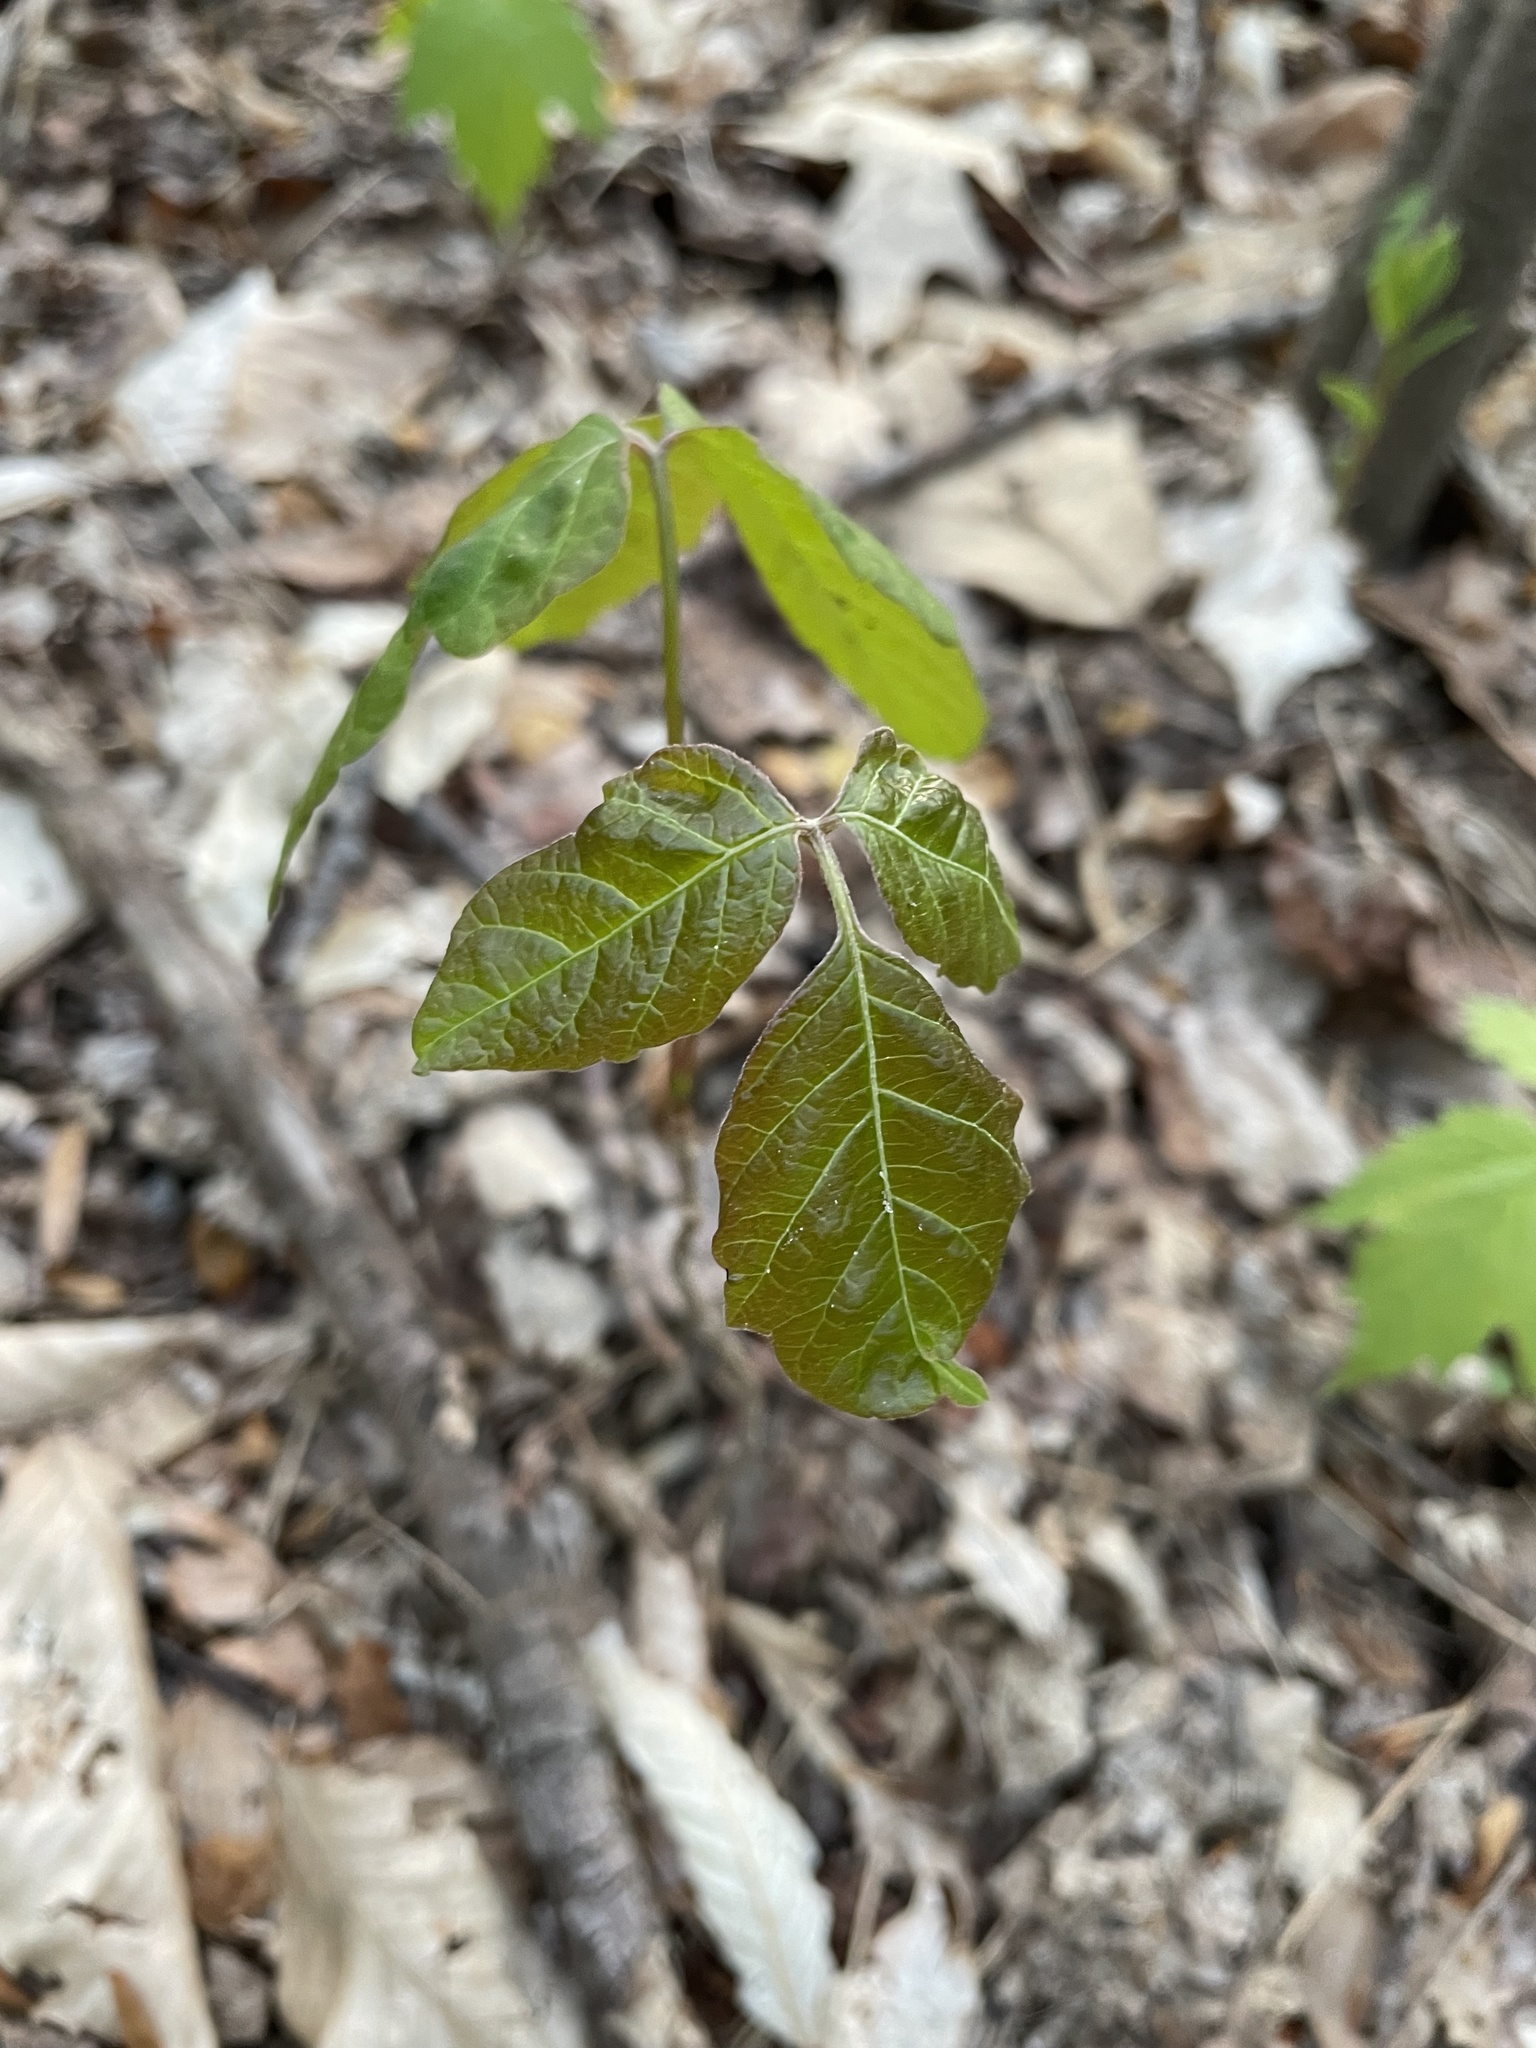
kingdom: Plantae
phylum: Tracheophyta
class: Magnoliopsida
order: Sapindales
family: Anacardiaceae
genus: Toxicodendron
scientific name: Toxicodendron radicans
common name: Poison ivy
